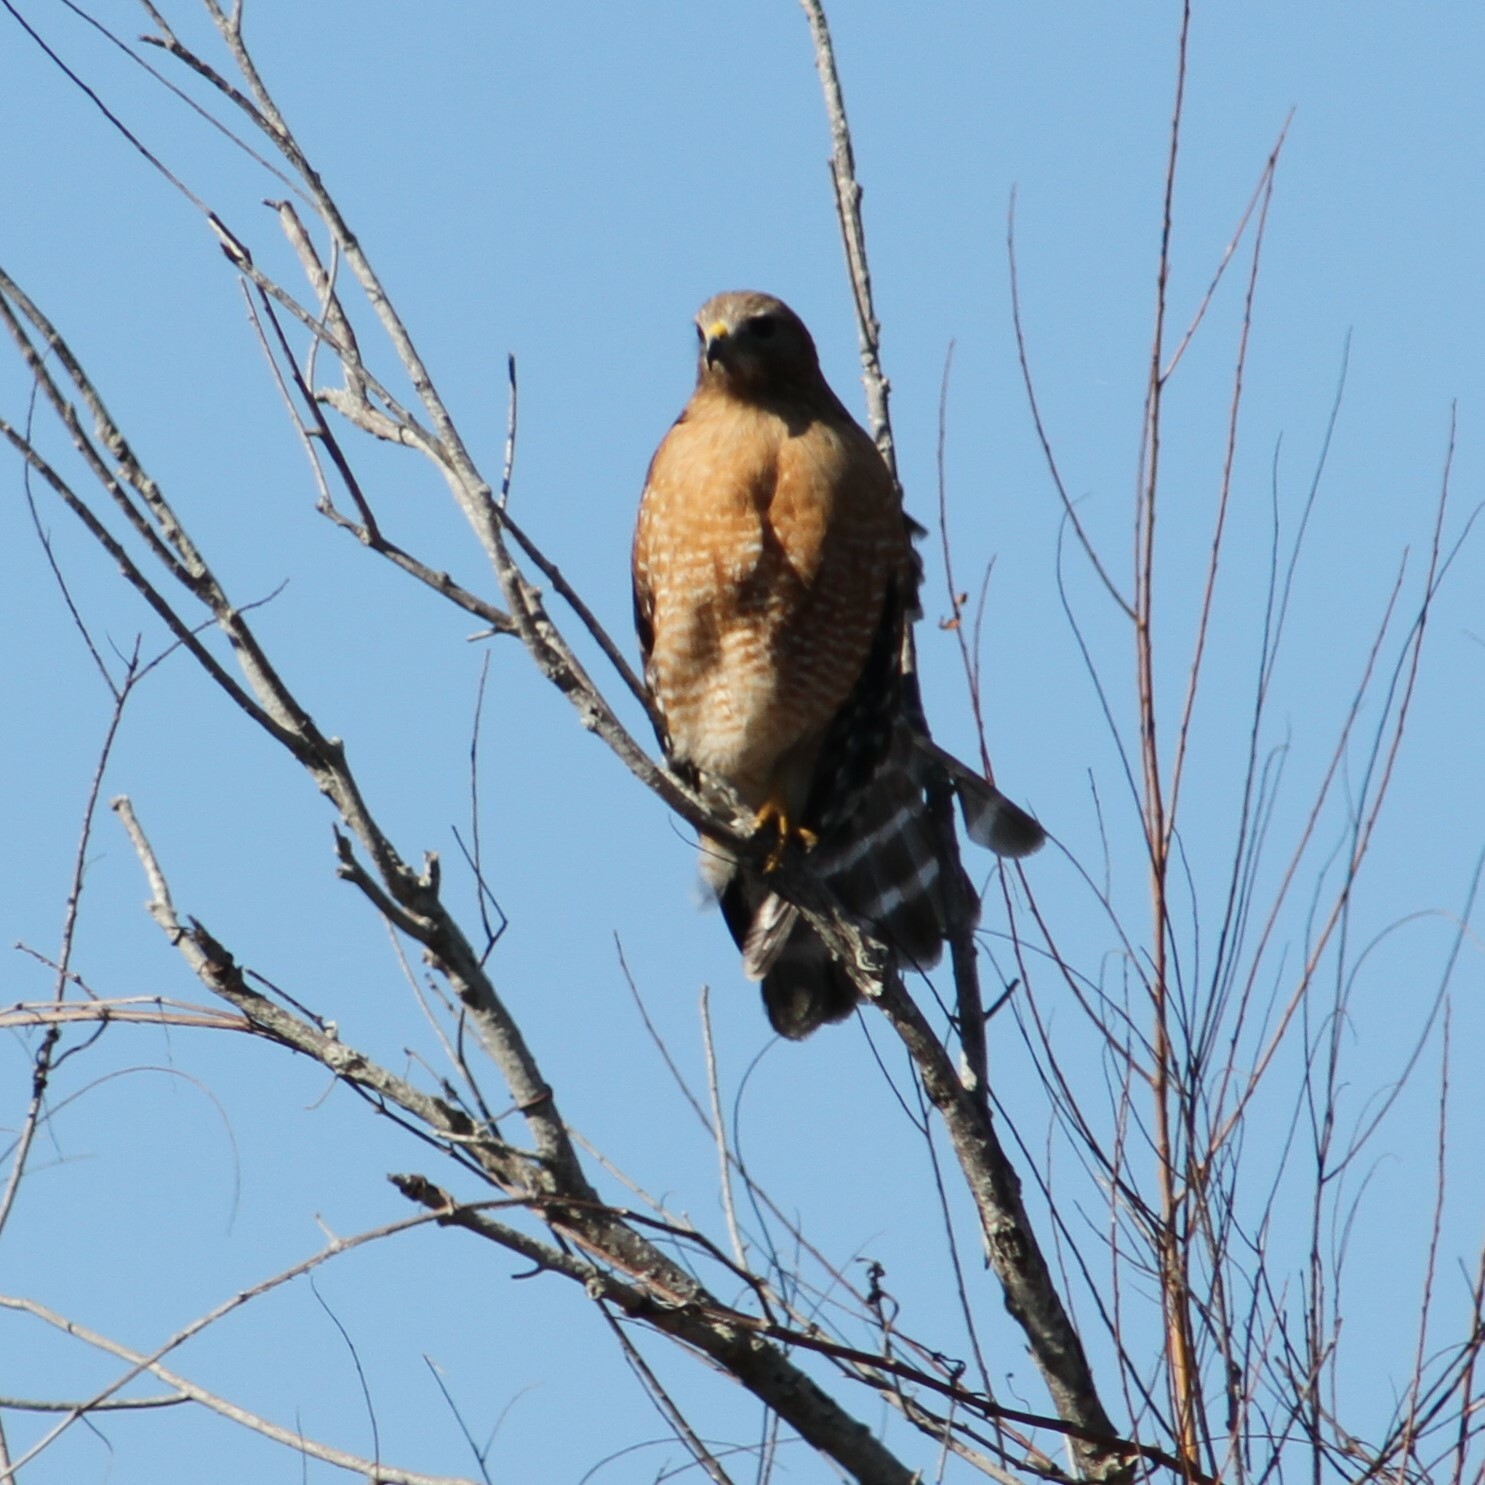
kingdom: Animalia
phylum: Chordata
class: Aves
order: Accipitriformes
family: Accipitridae
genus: Buteo
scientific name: Buteo lineatus
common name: Red-shouldered hawk
